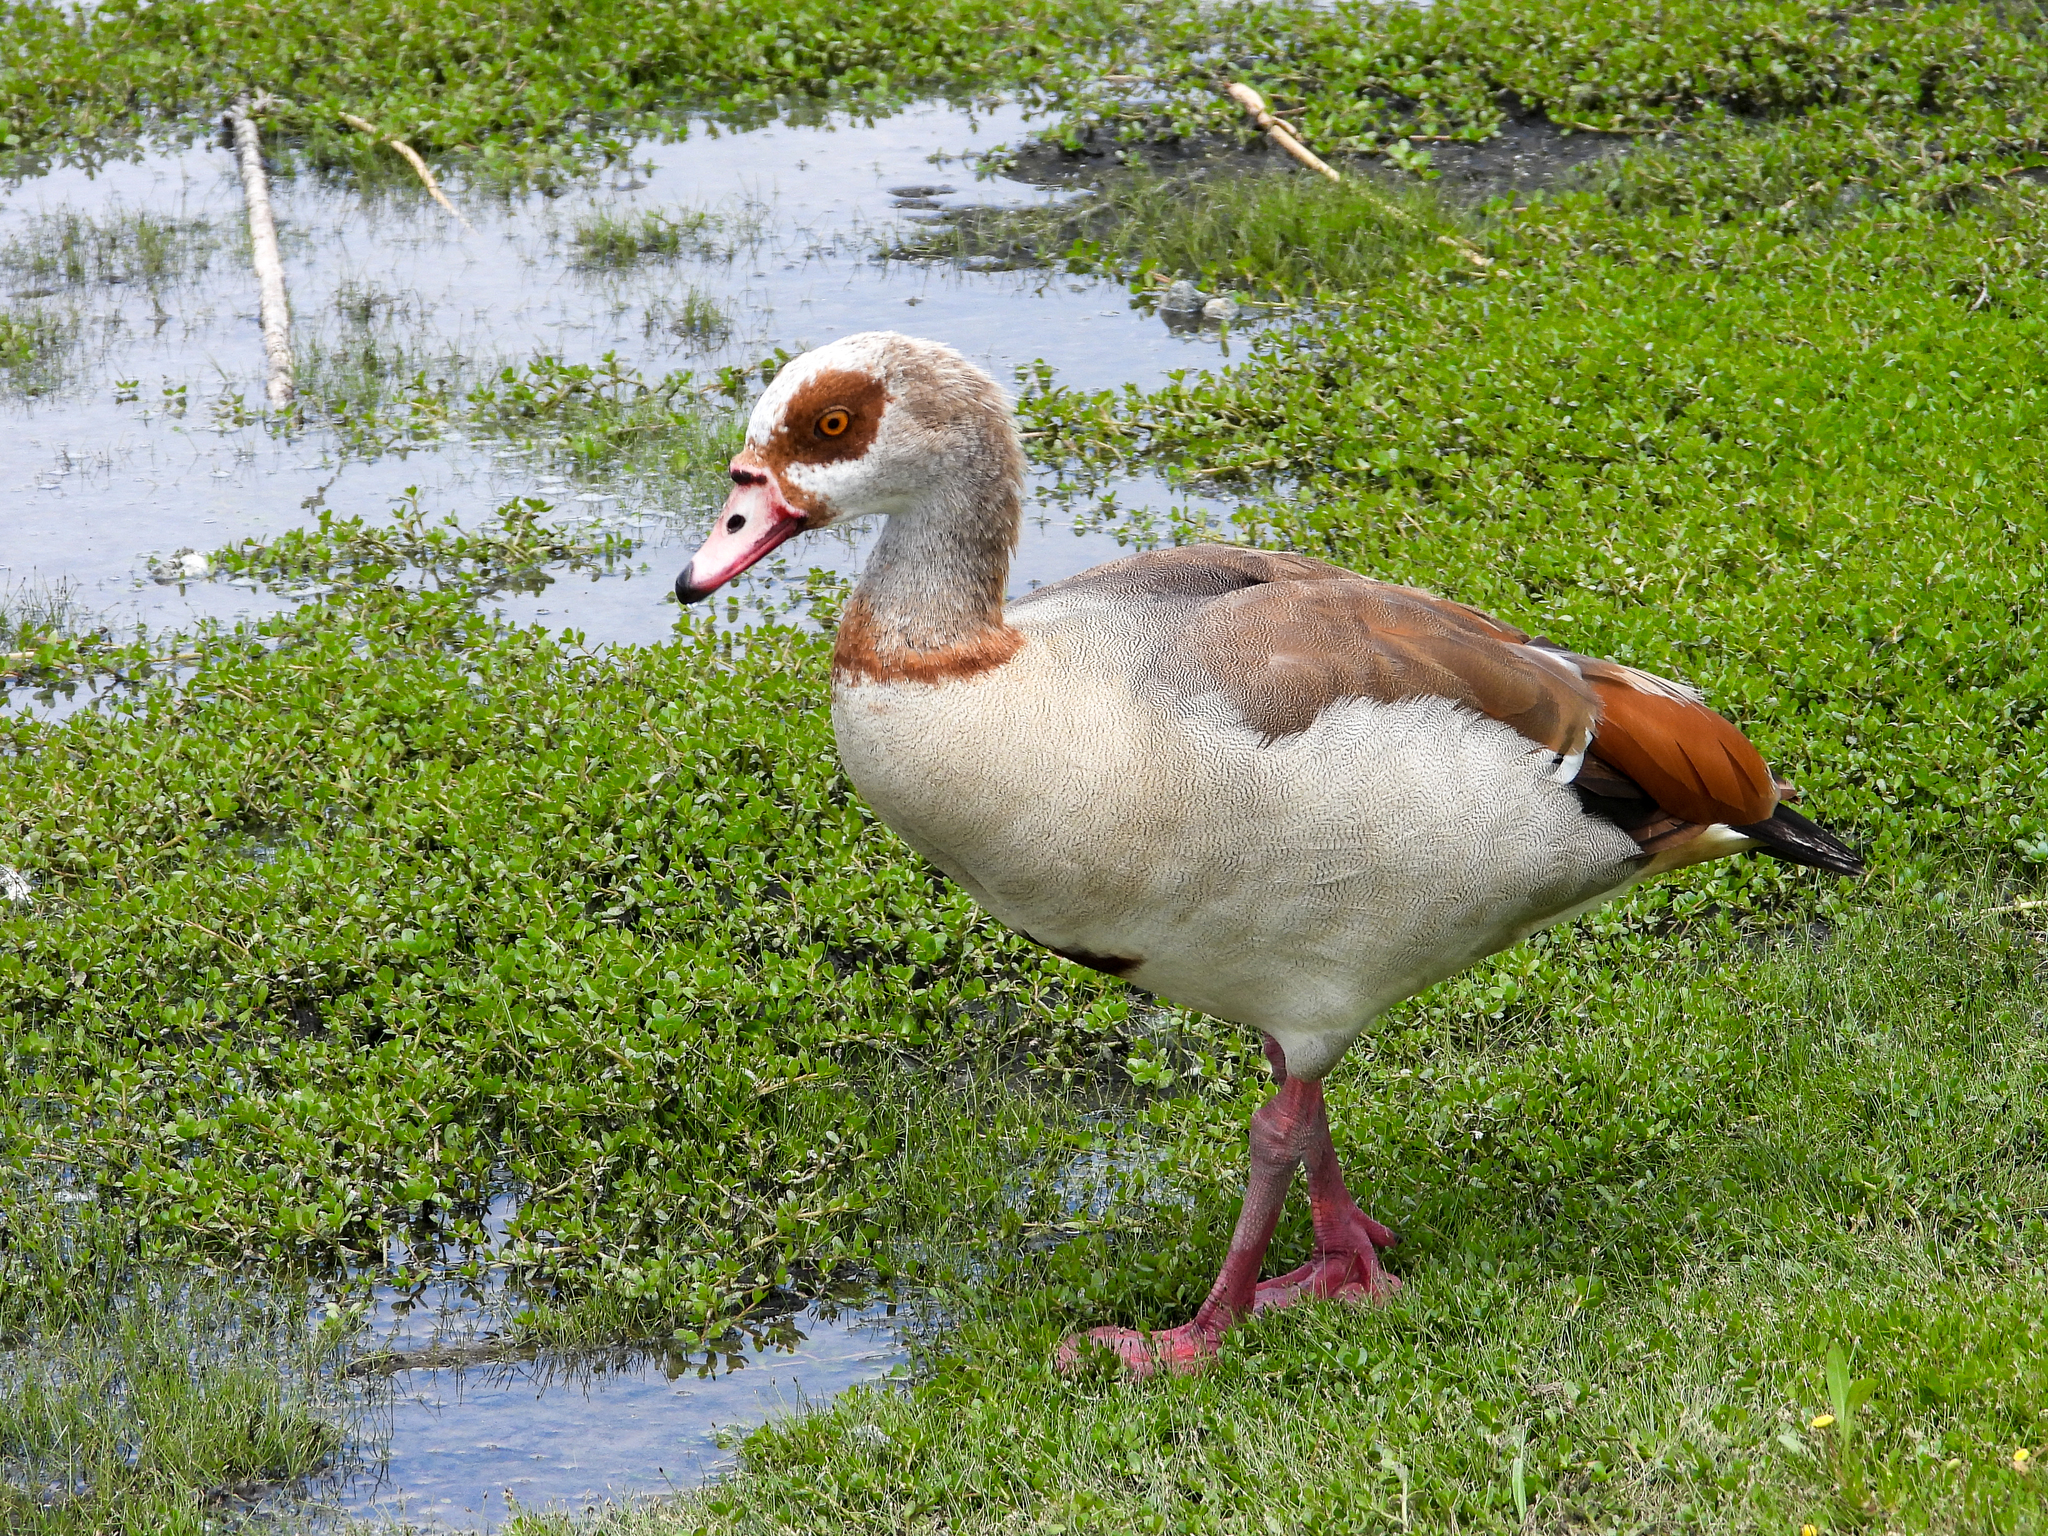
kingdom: Animalia
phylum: Chordata
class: Aves
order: Anseriformes
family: Anatidae
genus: Alopochen
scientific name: Alopochen aegyptiaca
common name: Egyptian goose
